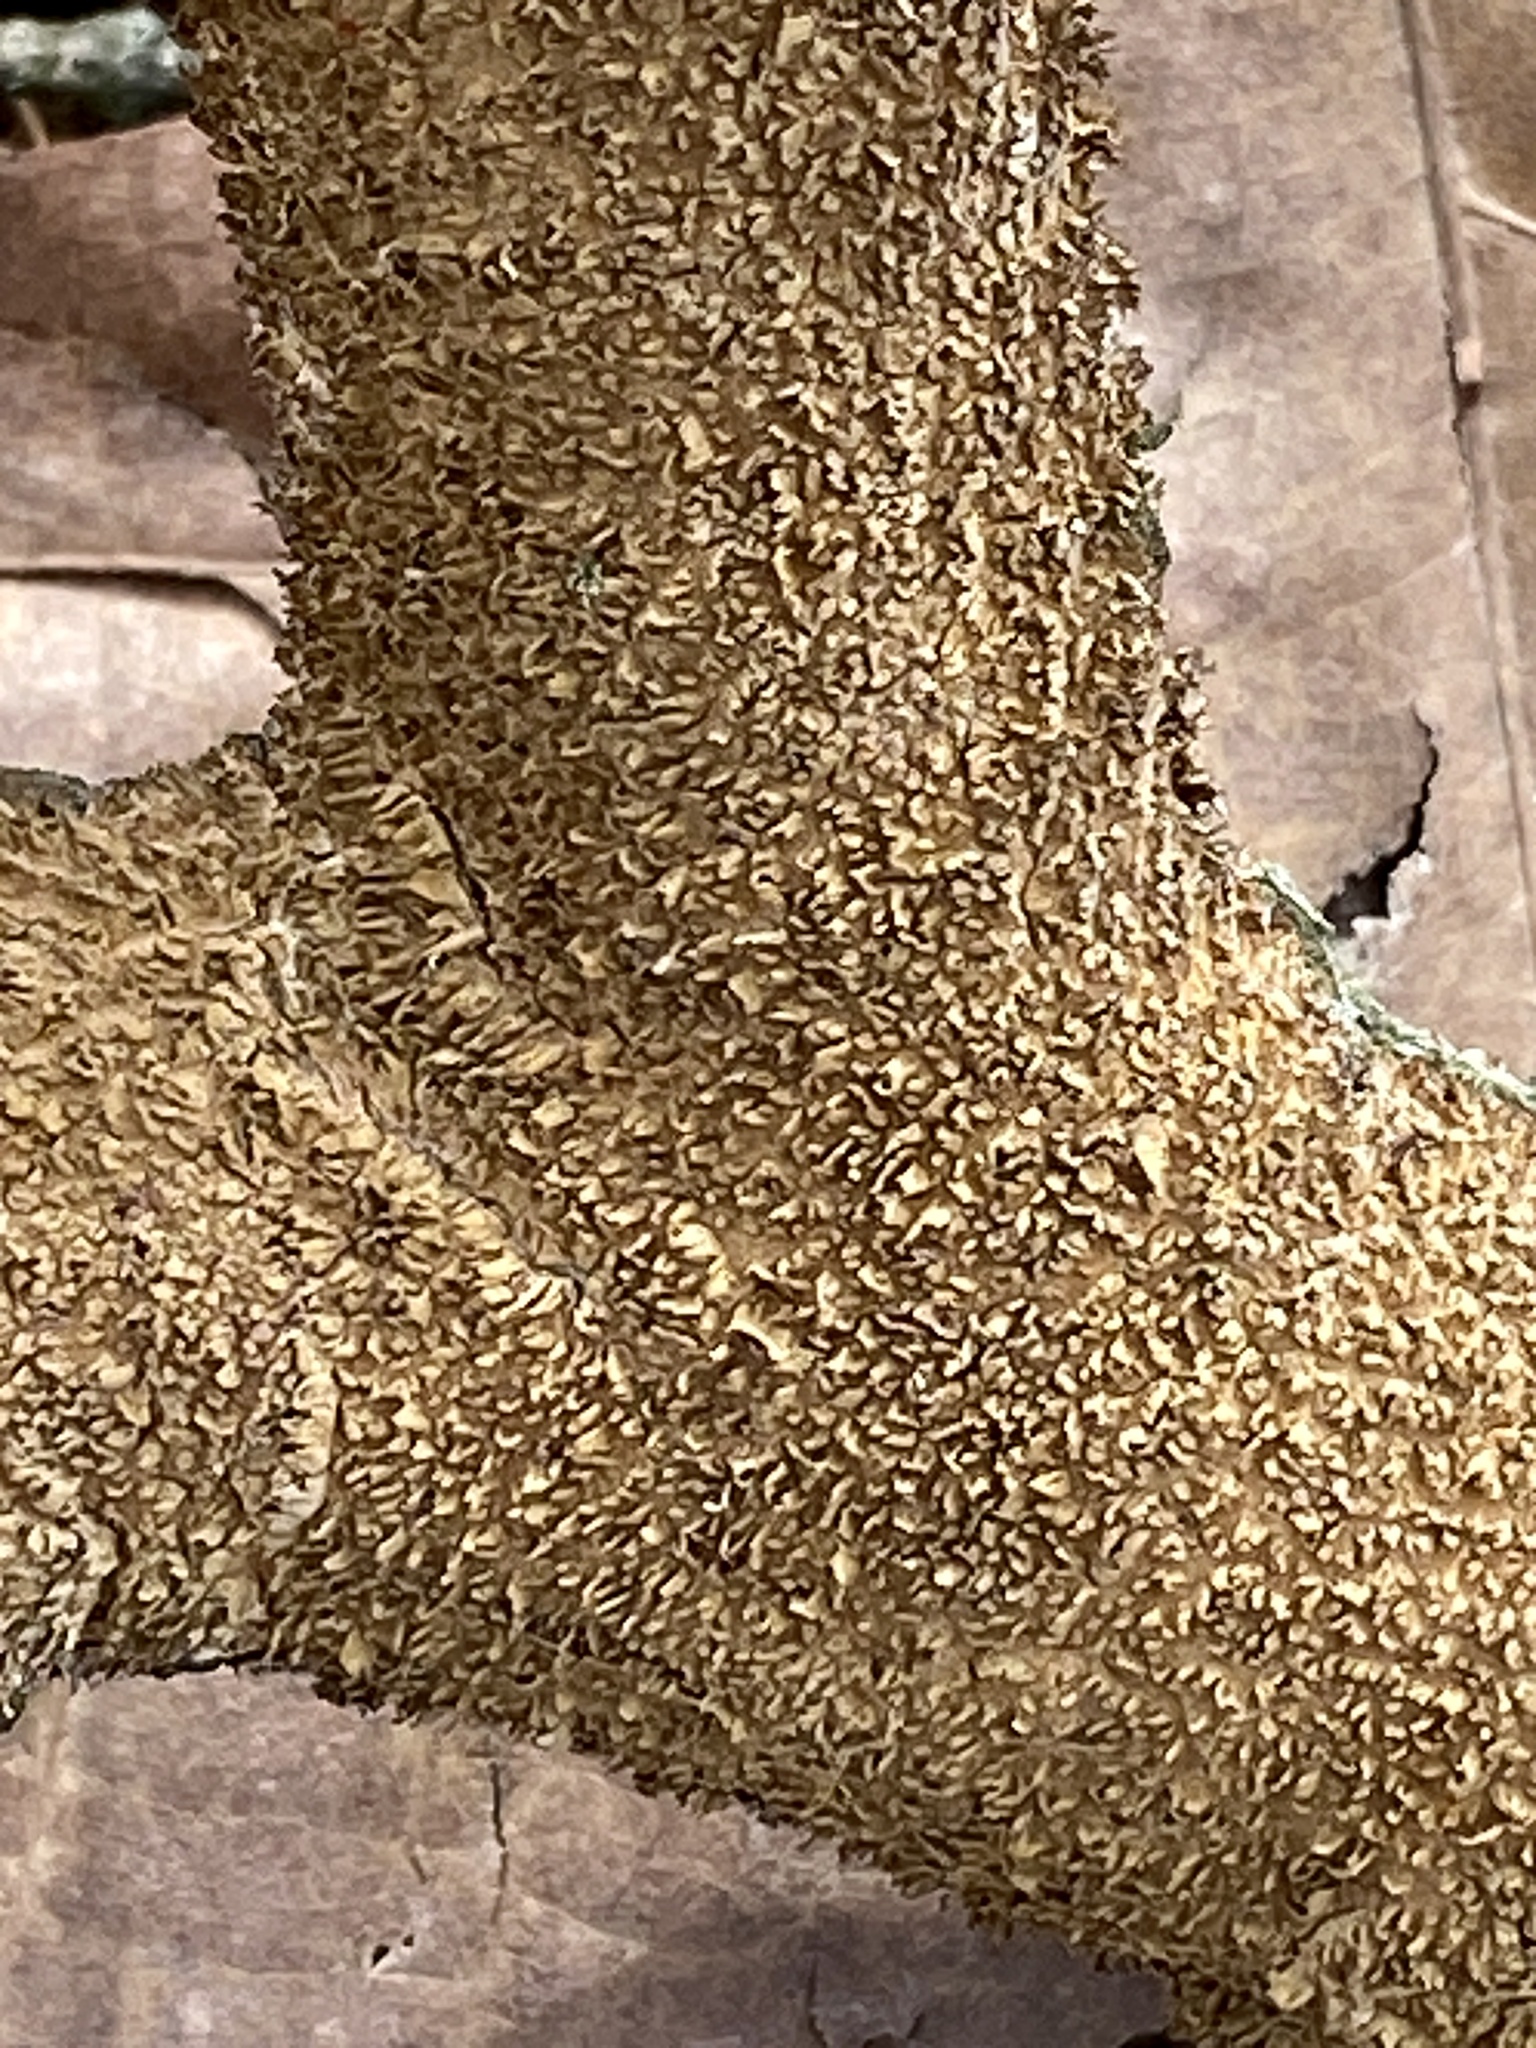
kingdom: Fungi
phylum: Basidiomycota
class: Agaricomycetes
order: Hymenochaetales
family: Hymenochaetaceae
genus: Hydnoporia
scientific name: Hydnoporia olivacea
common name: Brown-toothed crust fungus
